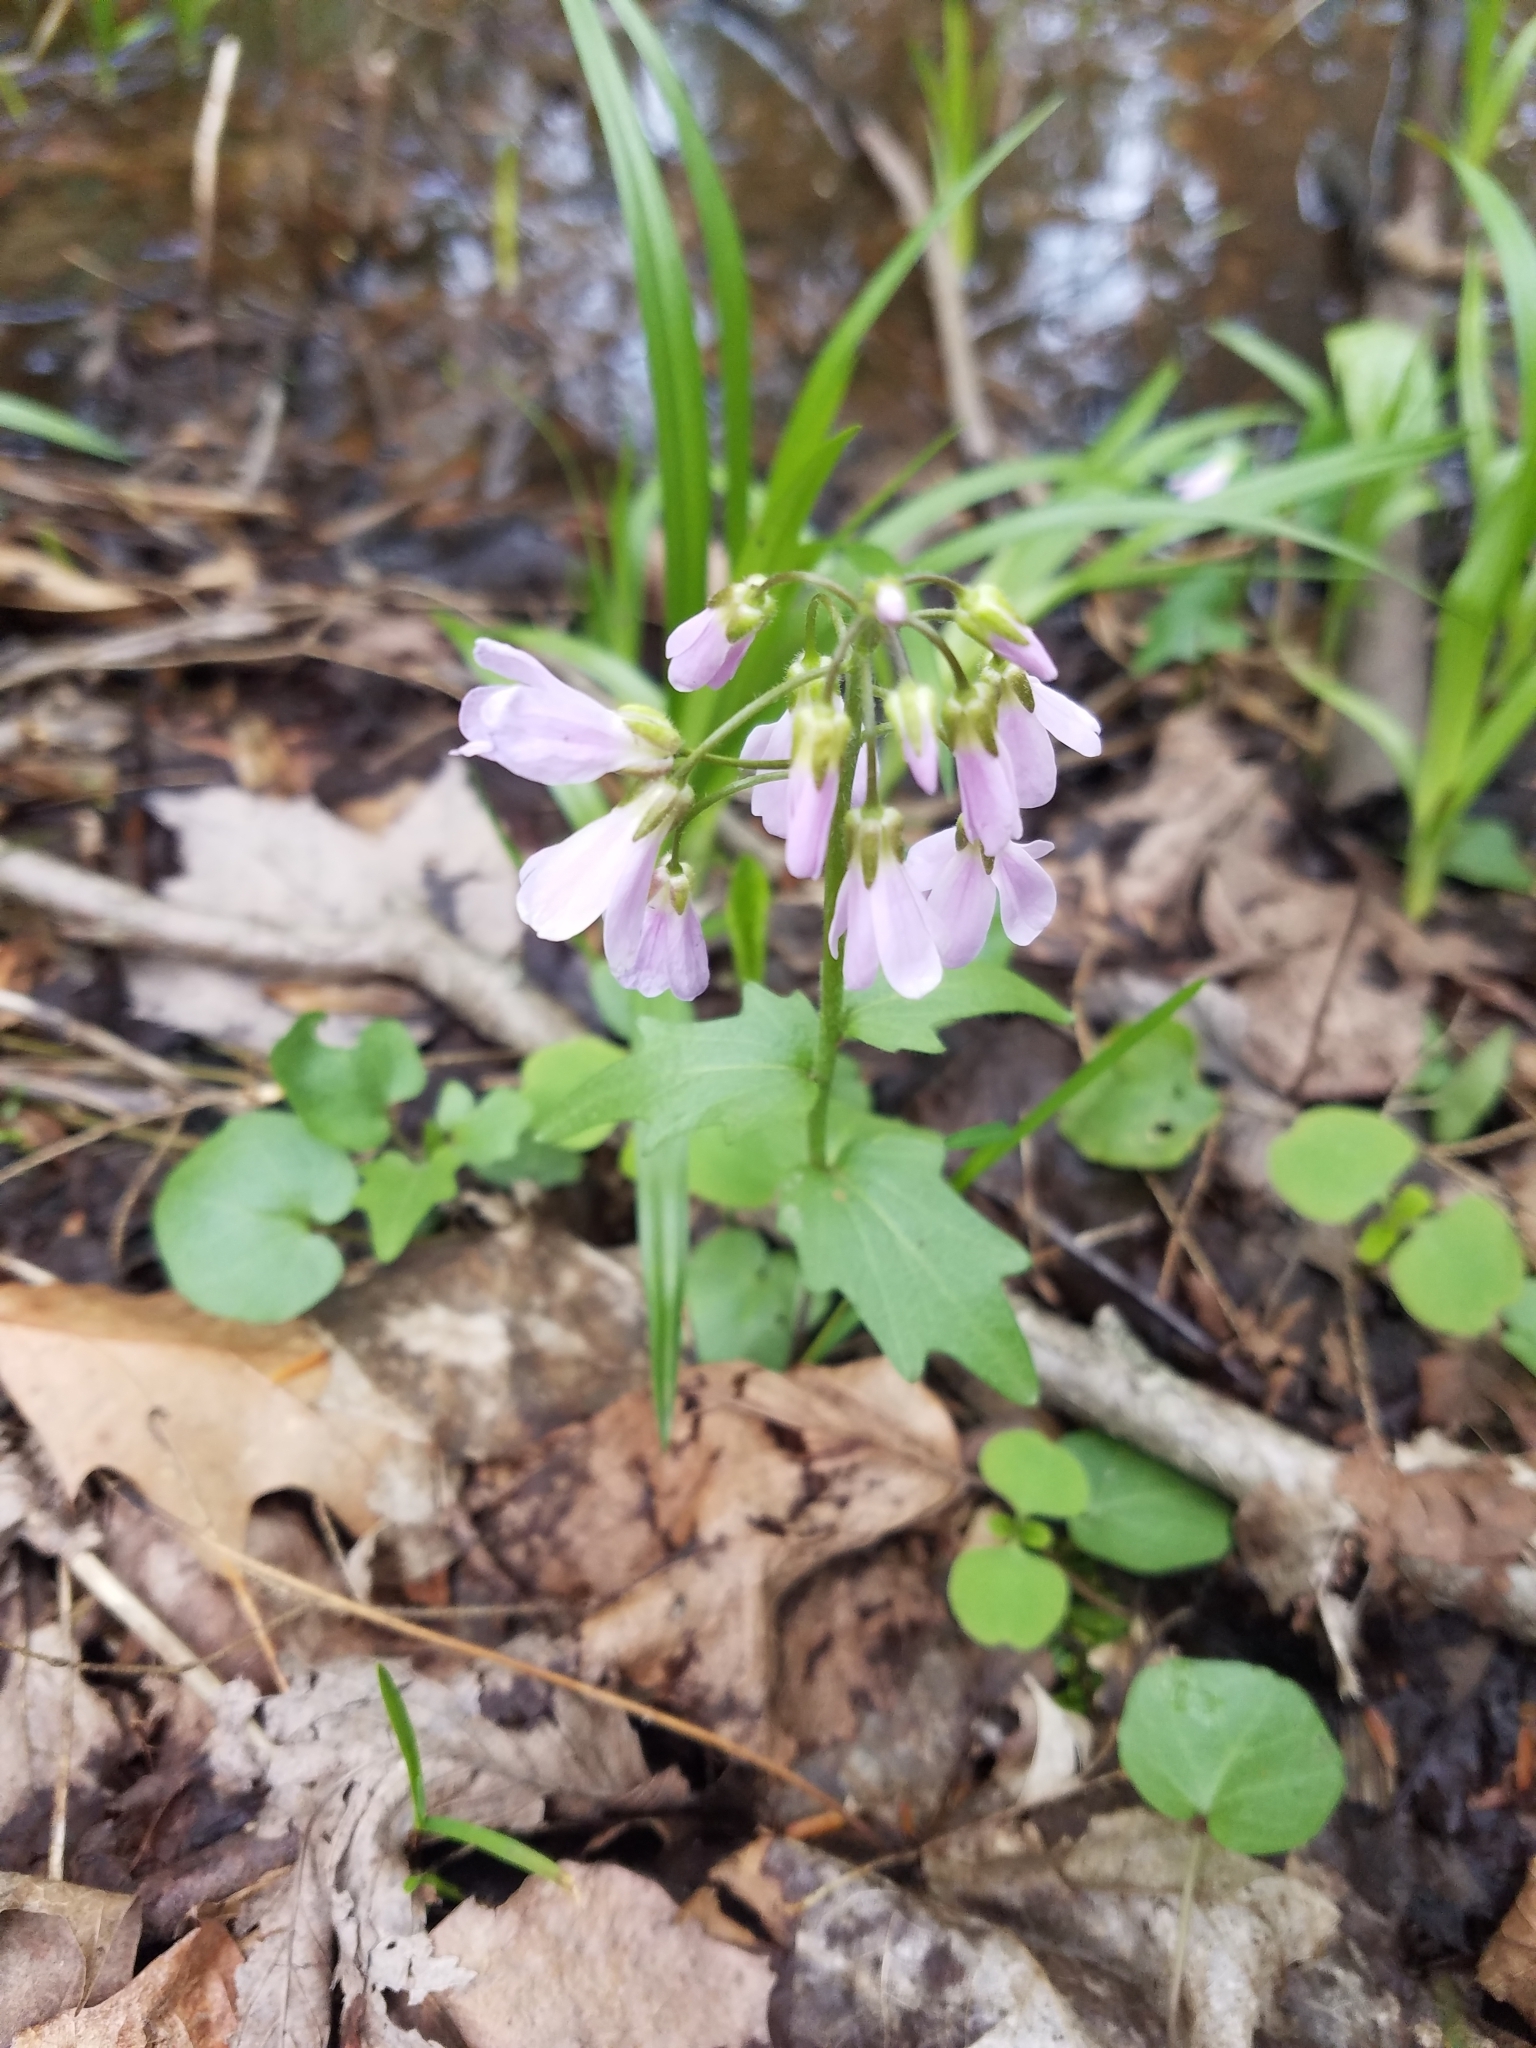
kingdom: Plantae
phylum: Tracheophyta
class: Magnoliopsida
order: Brassicales
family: Brassicaceae
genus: Cardamine
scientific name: Cardamine douglassii
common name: Purple cress
